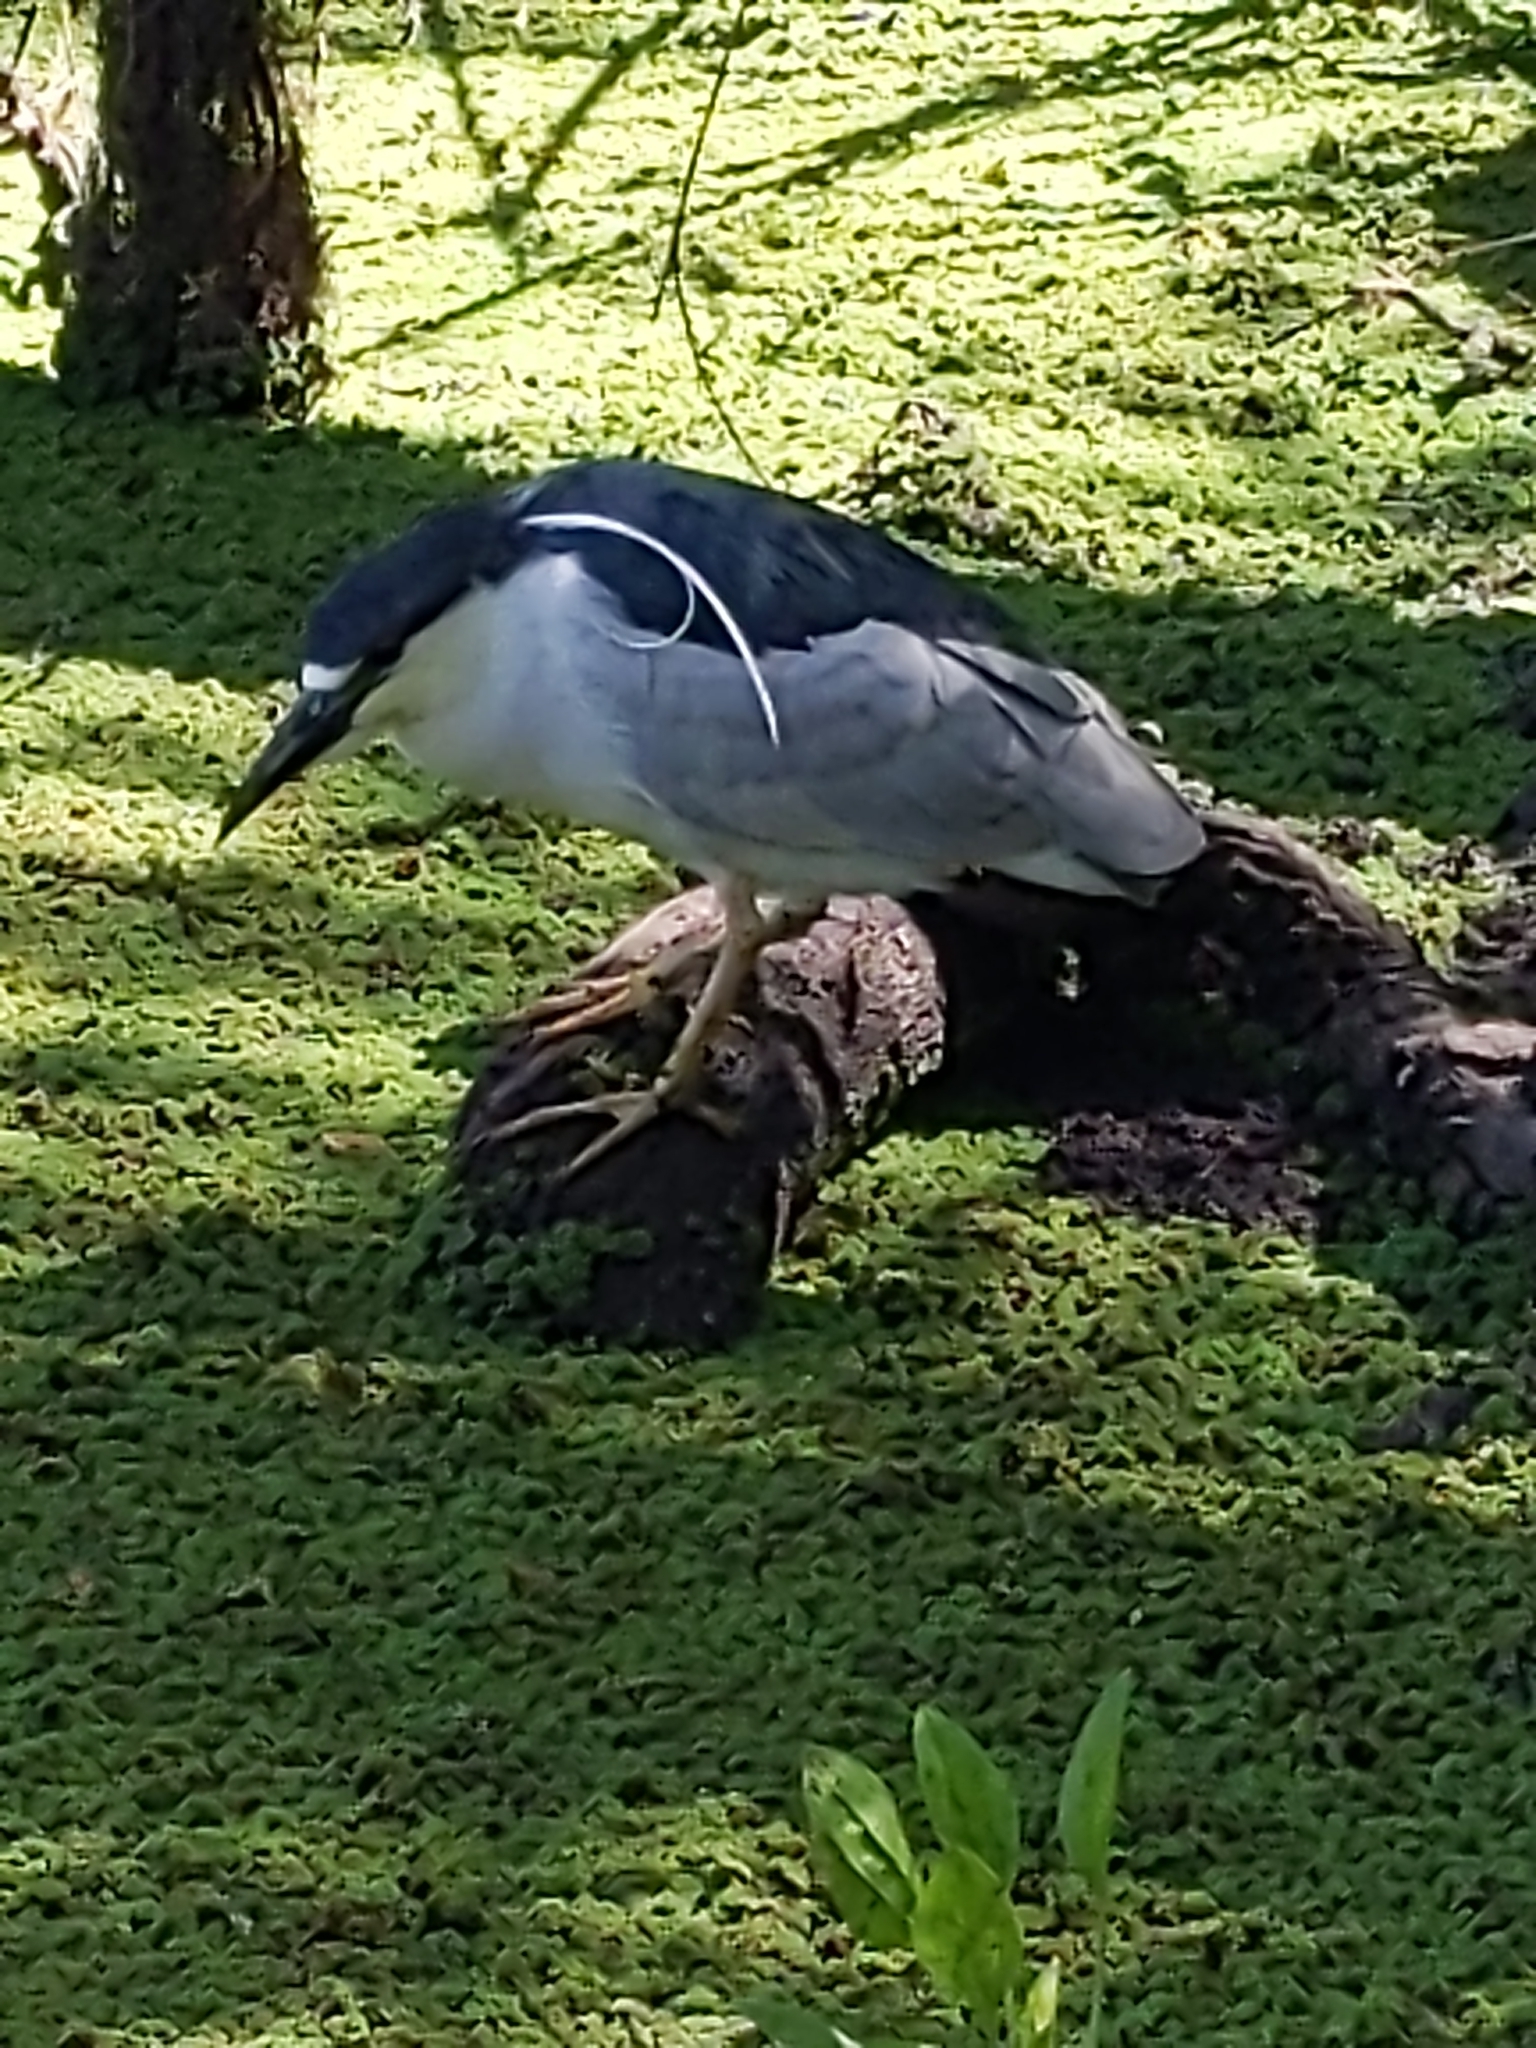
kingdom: Animalia
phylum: Chordata
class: Aves
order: Pelecaniformes
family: Ardeidae
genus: Nycticorax
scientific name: Nycticorax nycticorax
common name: Black-crowned night heron
